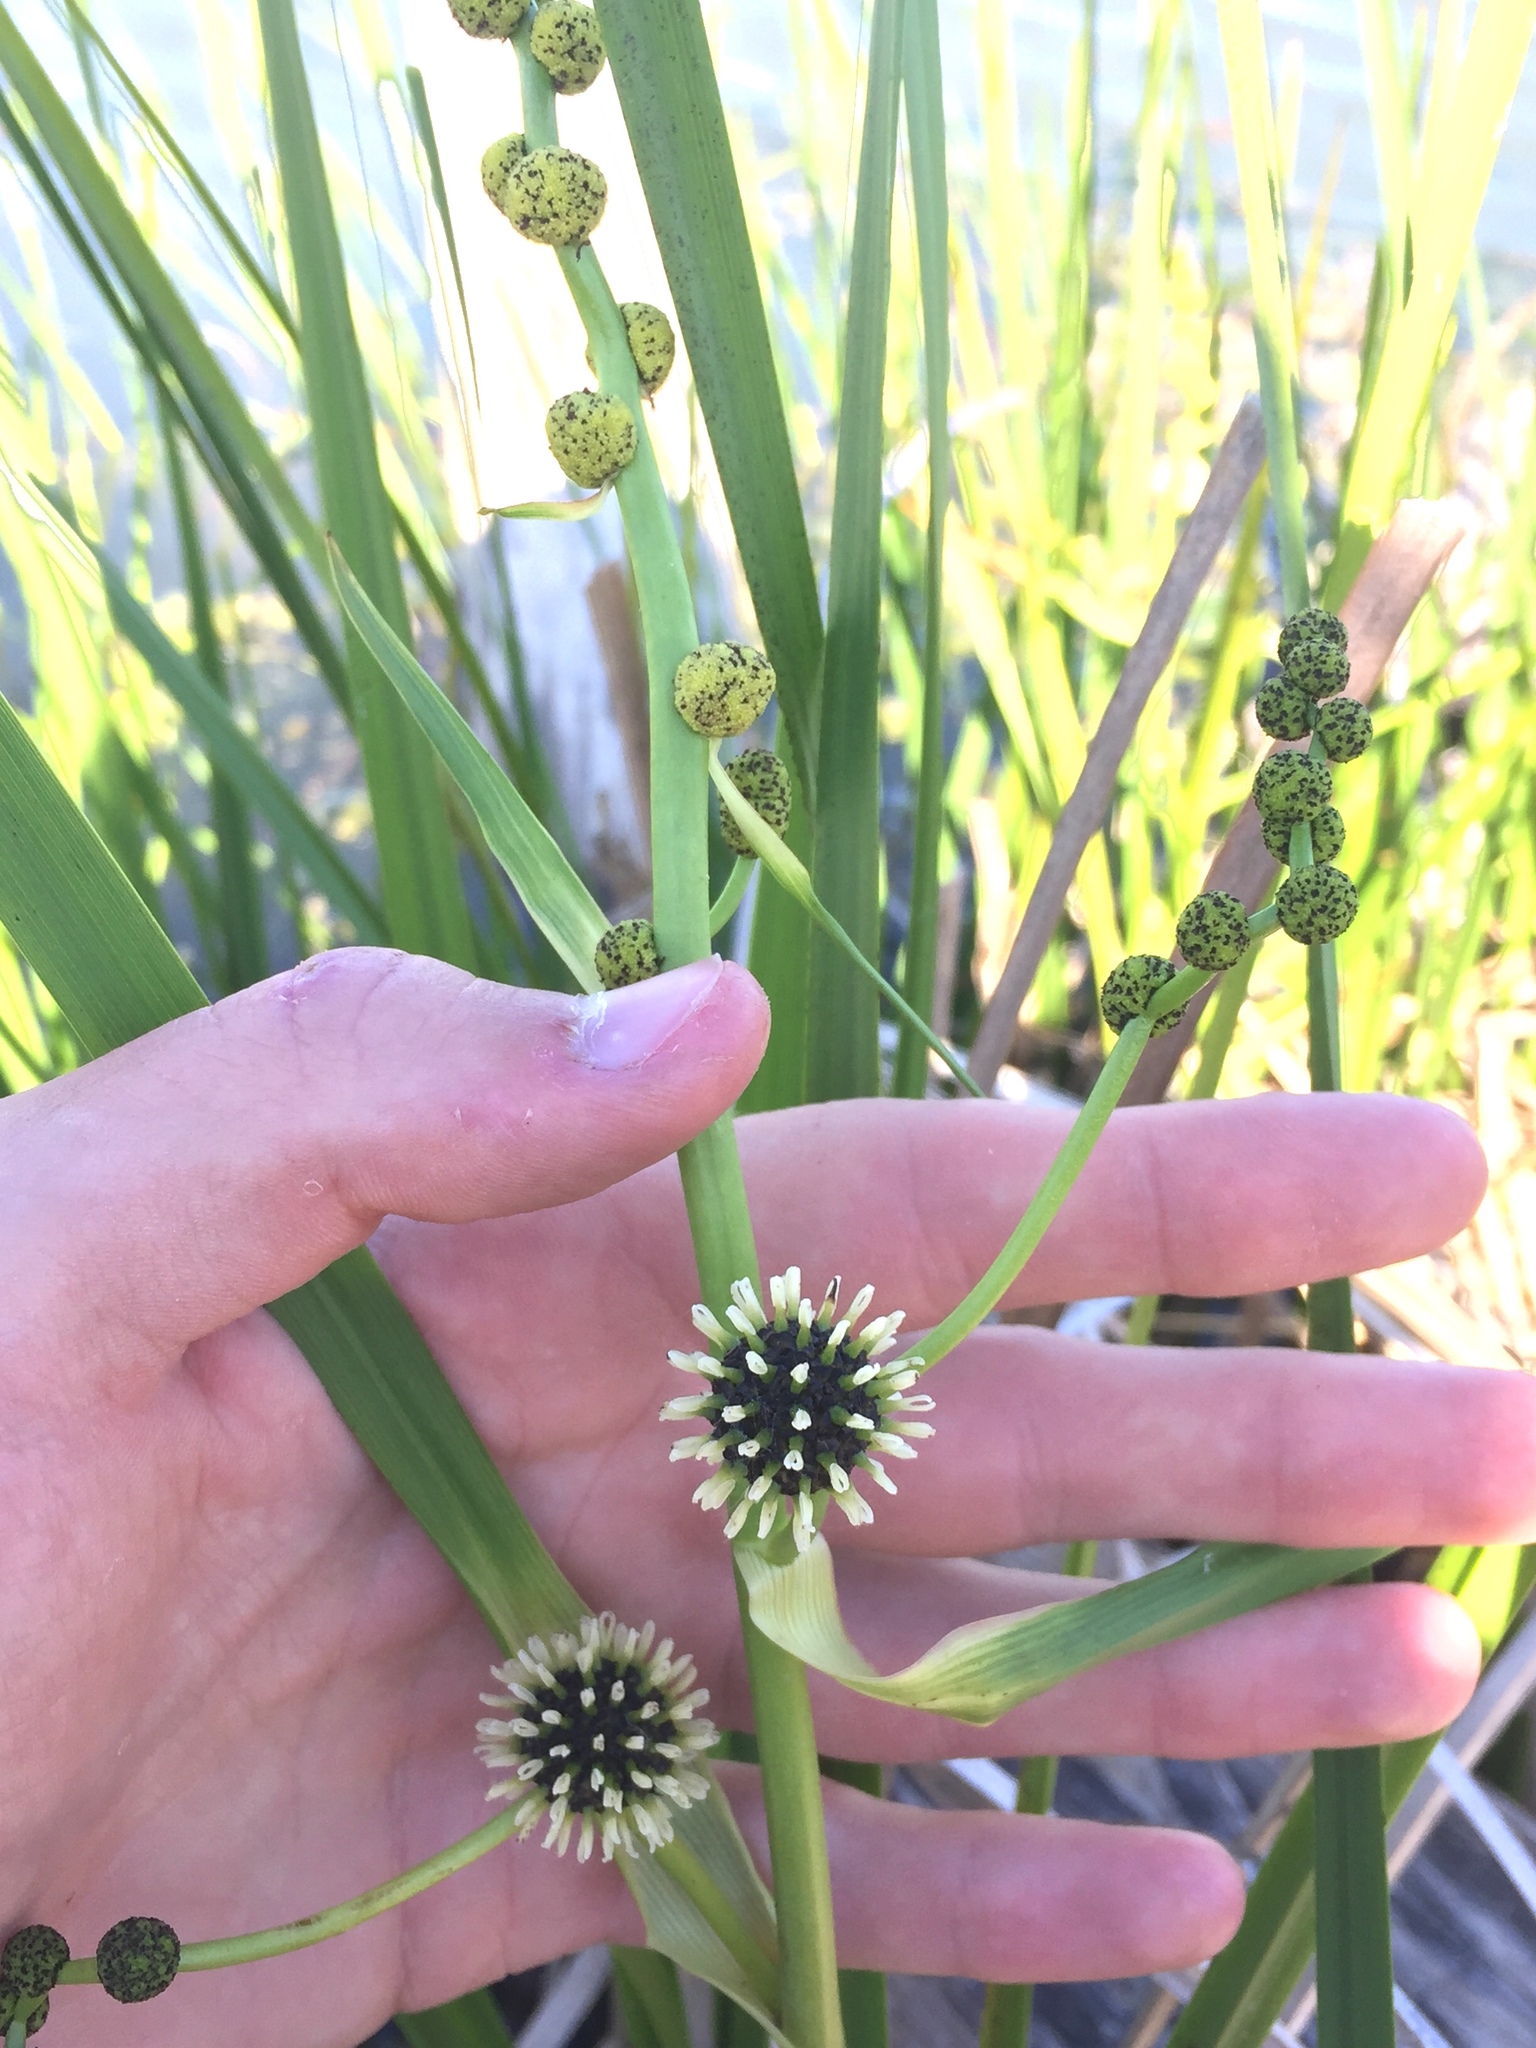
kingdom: Plantae
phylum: Tracheophyta
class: Liliopsida
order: Poales
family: Typhaceae
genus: Sparganium
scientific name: Sparganium eurycarpum
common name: Broad-fruited burreed
